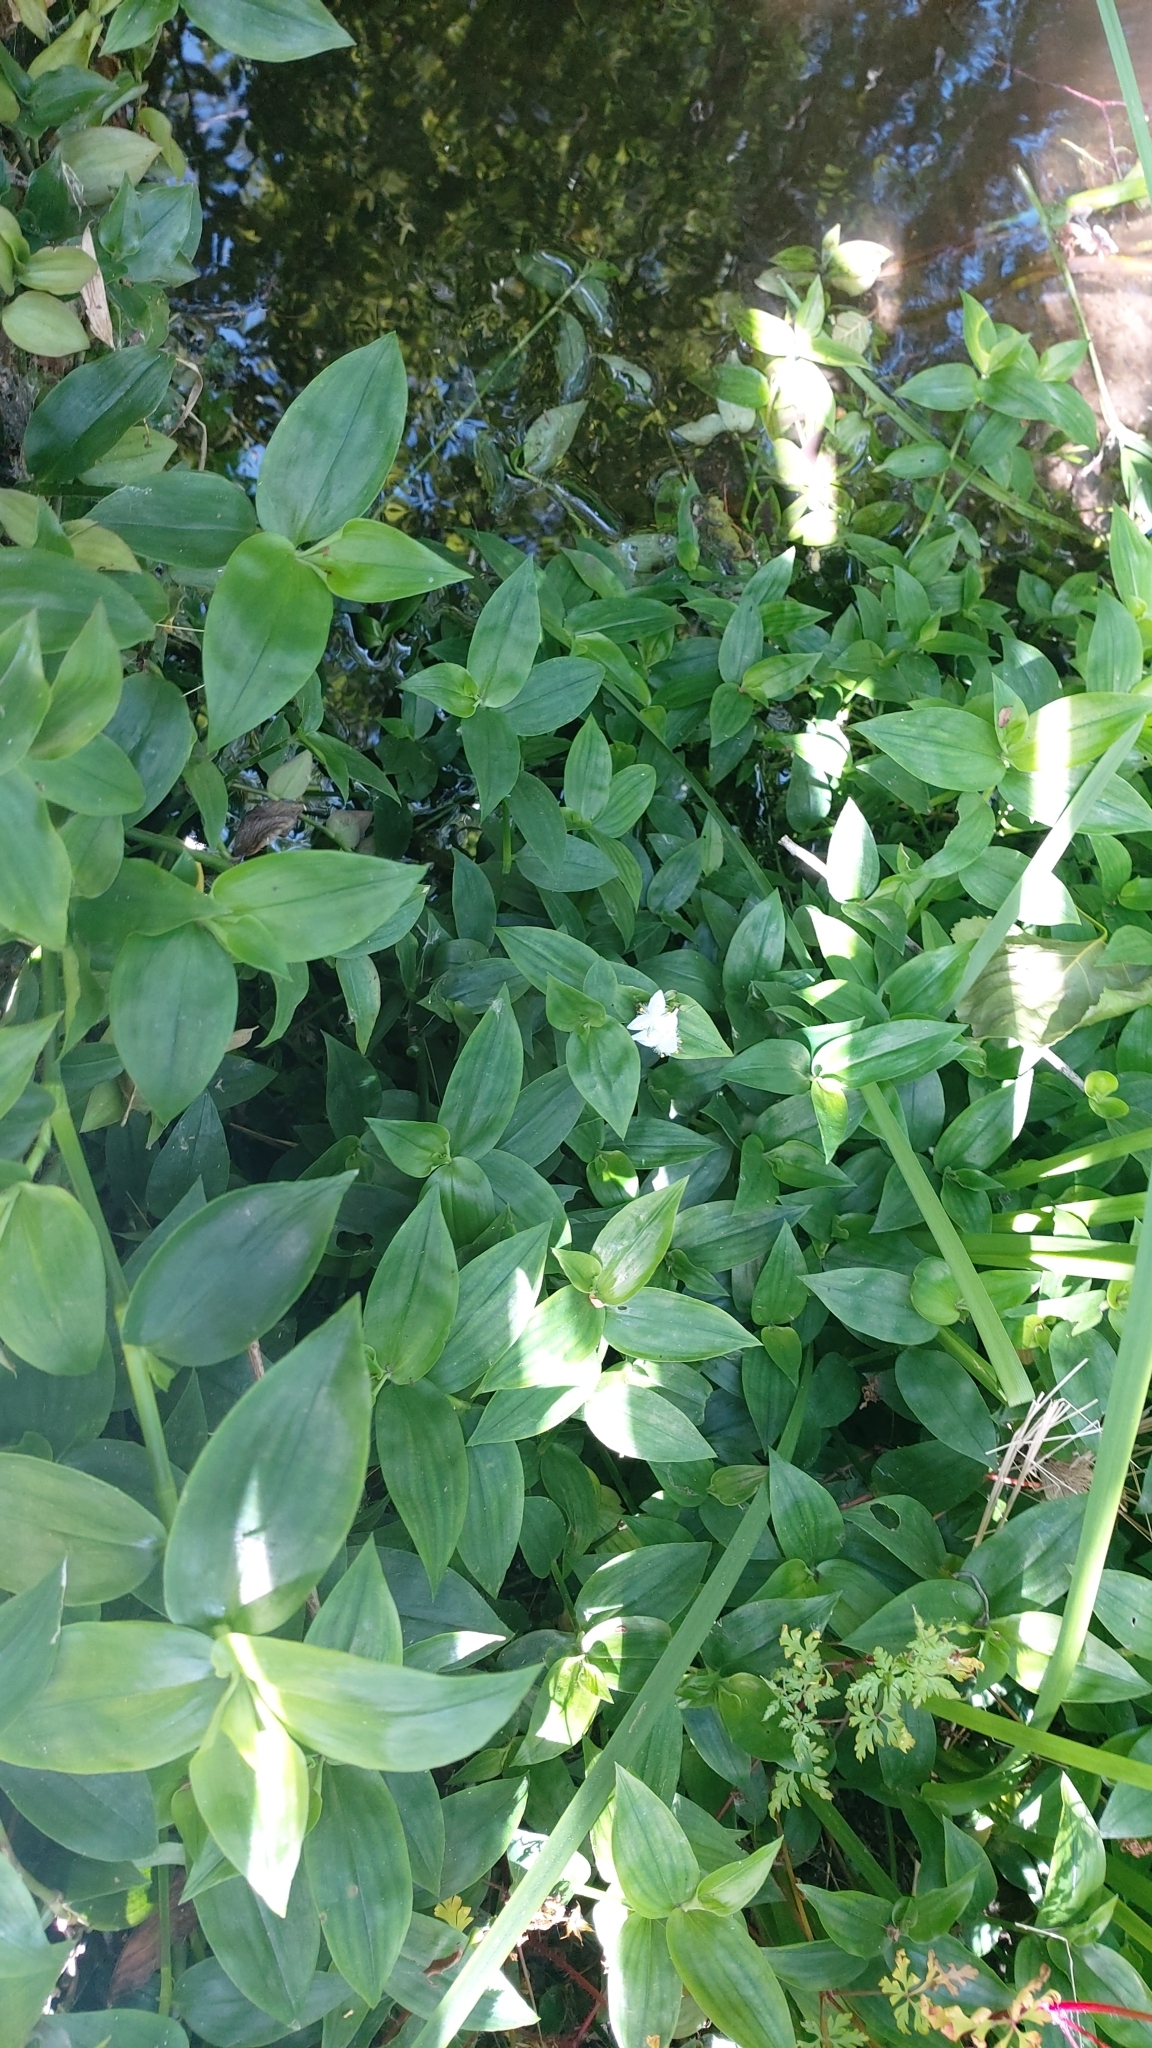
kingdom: Plantae
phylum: Tracheophyta
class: Liliopsida
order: Commelinales
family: Commelinaceae
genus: Tradescantia
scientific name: Tradescantia fluminensis
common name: Wandering-jew
